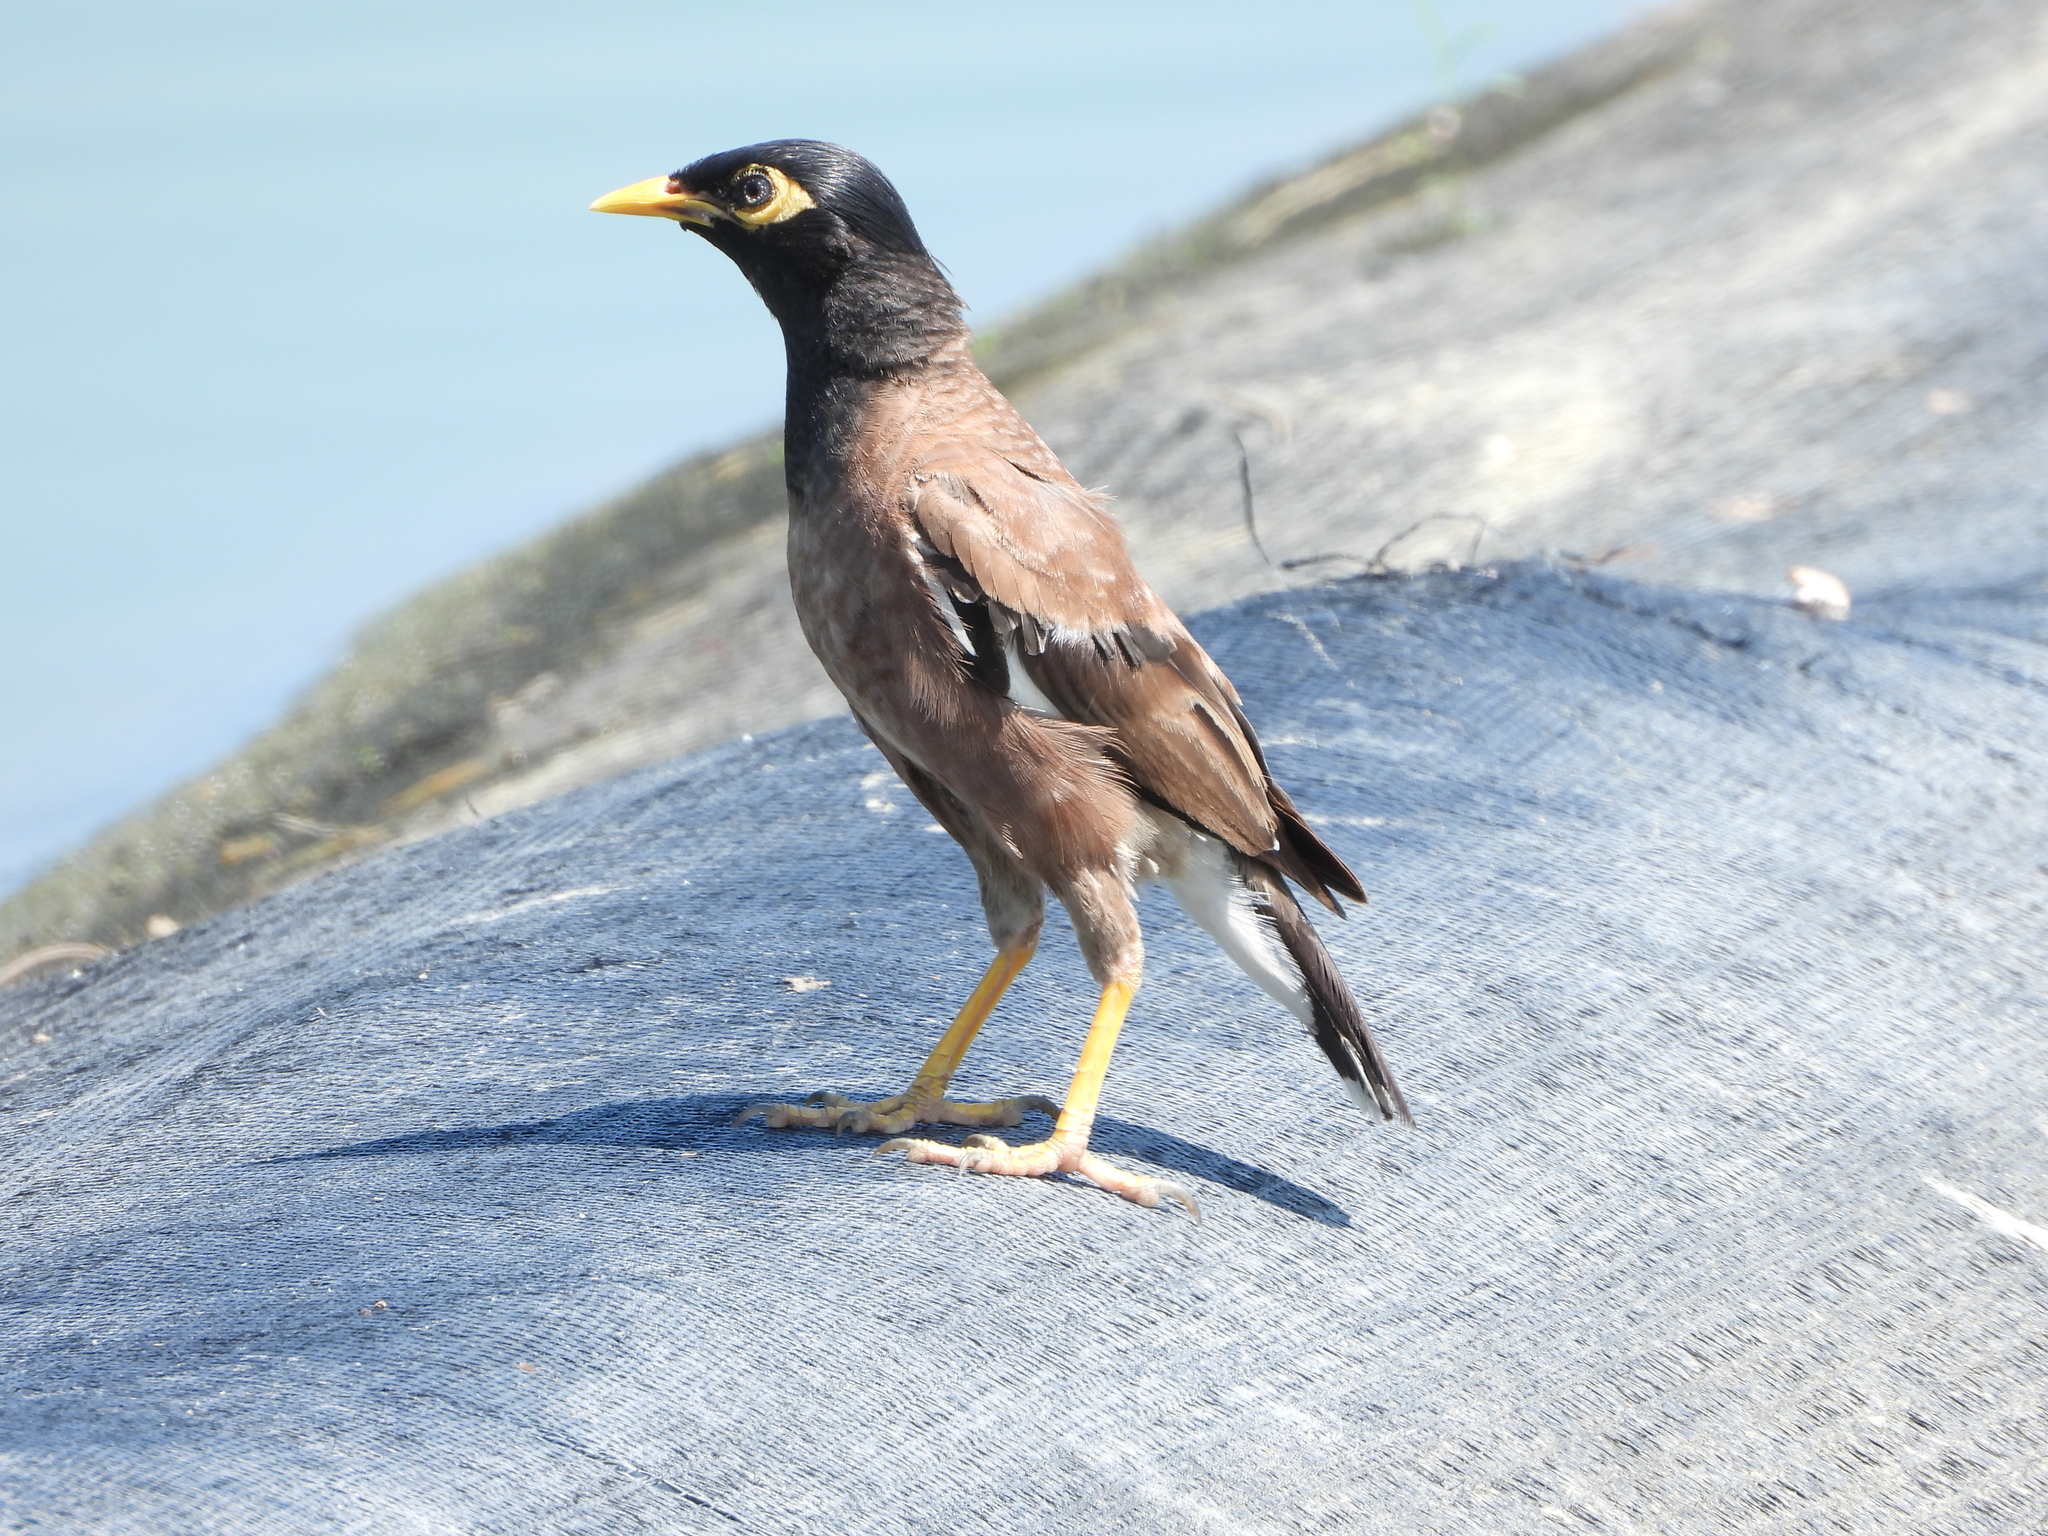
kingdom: Animalia
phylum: Chordata
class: Aves
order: Passeriformes
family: Sturnidae
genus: Acridotheres
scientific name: Acridotheres tristis
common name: Common myna
